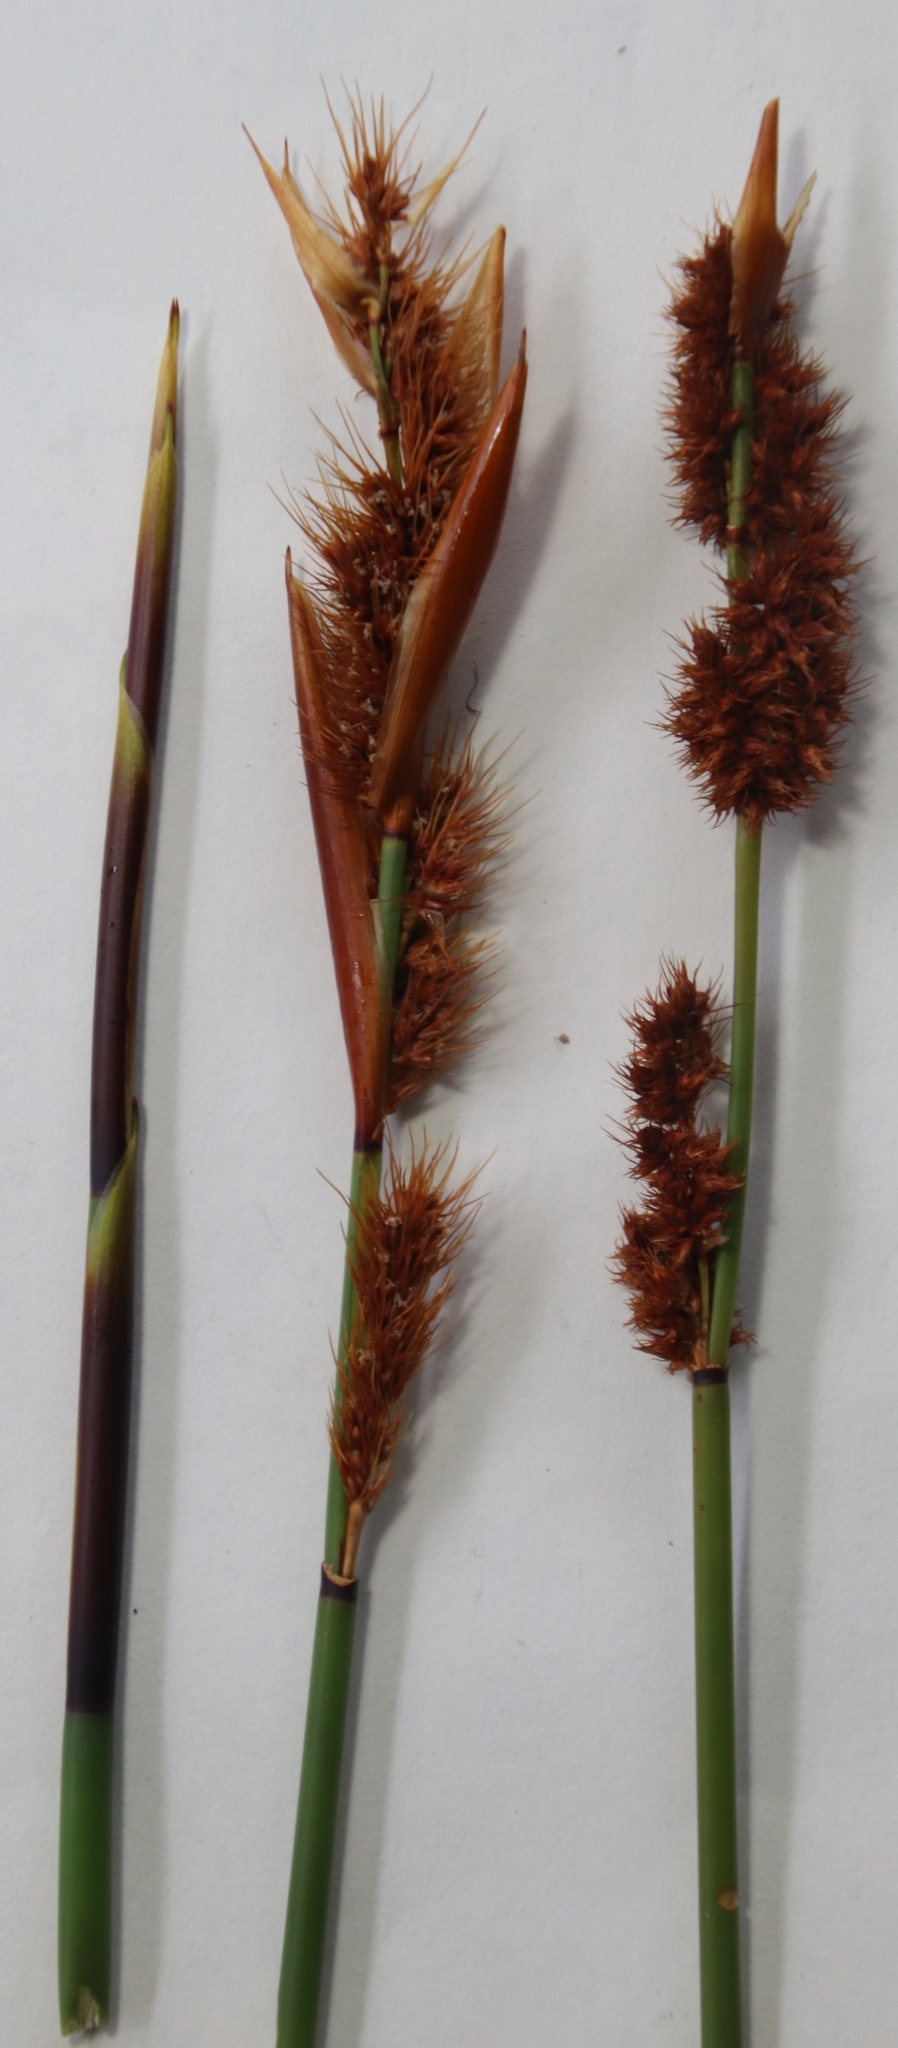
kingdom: Plantae
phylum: Tracheophyta
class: Liliopsida
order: Poales
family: Restionaceae
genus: Elegia
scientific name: Elegia cuspidata
